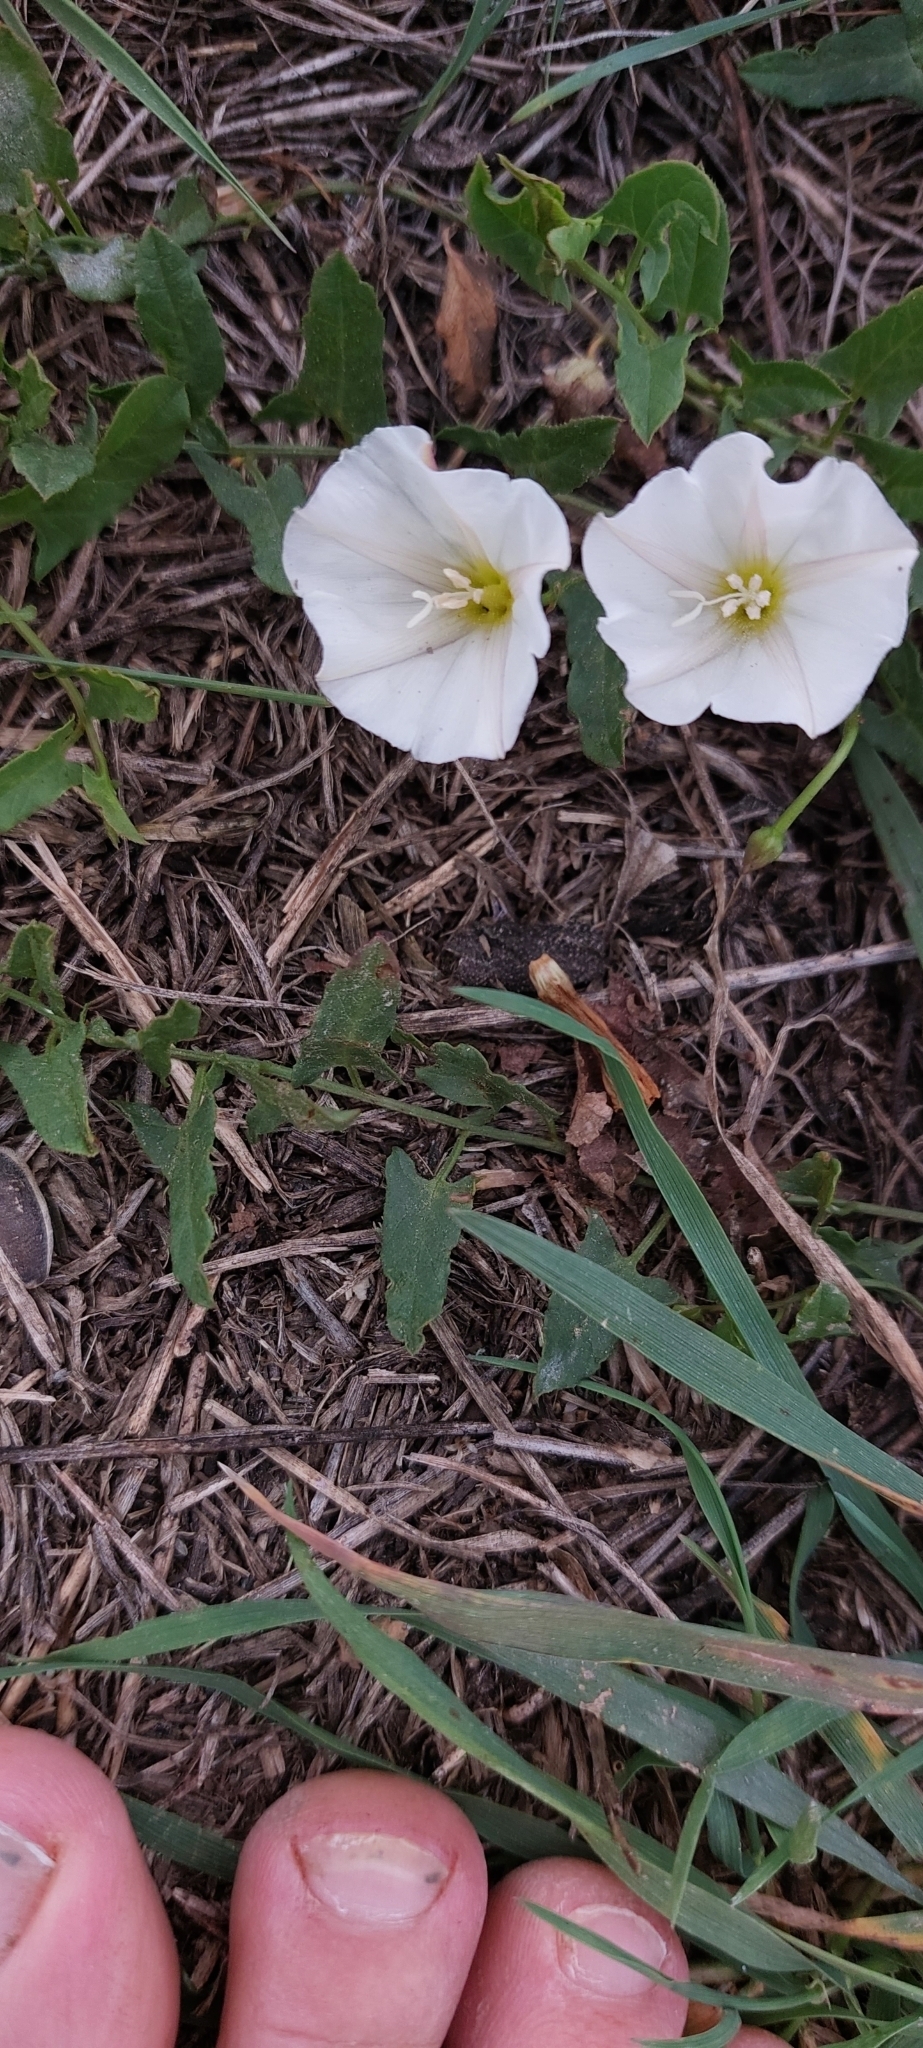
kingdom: Plantae
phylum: Tracheophyta
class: Magnoliopsida
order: Solanales
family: Convolvulaceae
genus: Convolvulus
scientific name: Convolvulus arvensis
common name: Field bindweed
